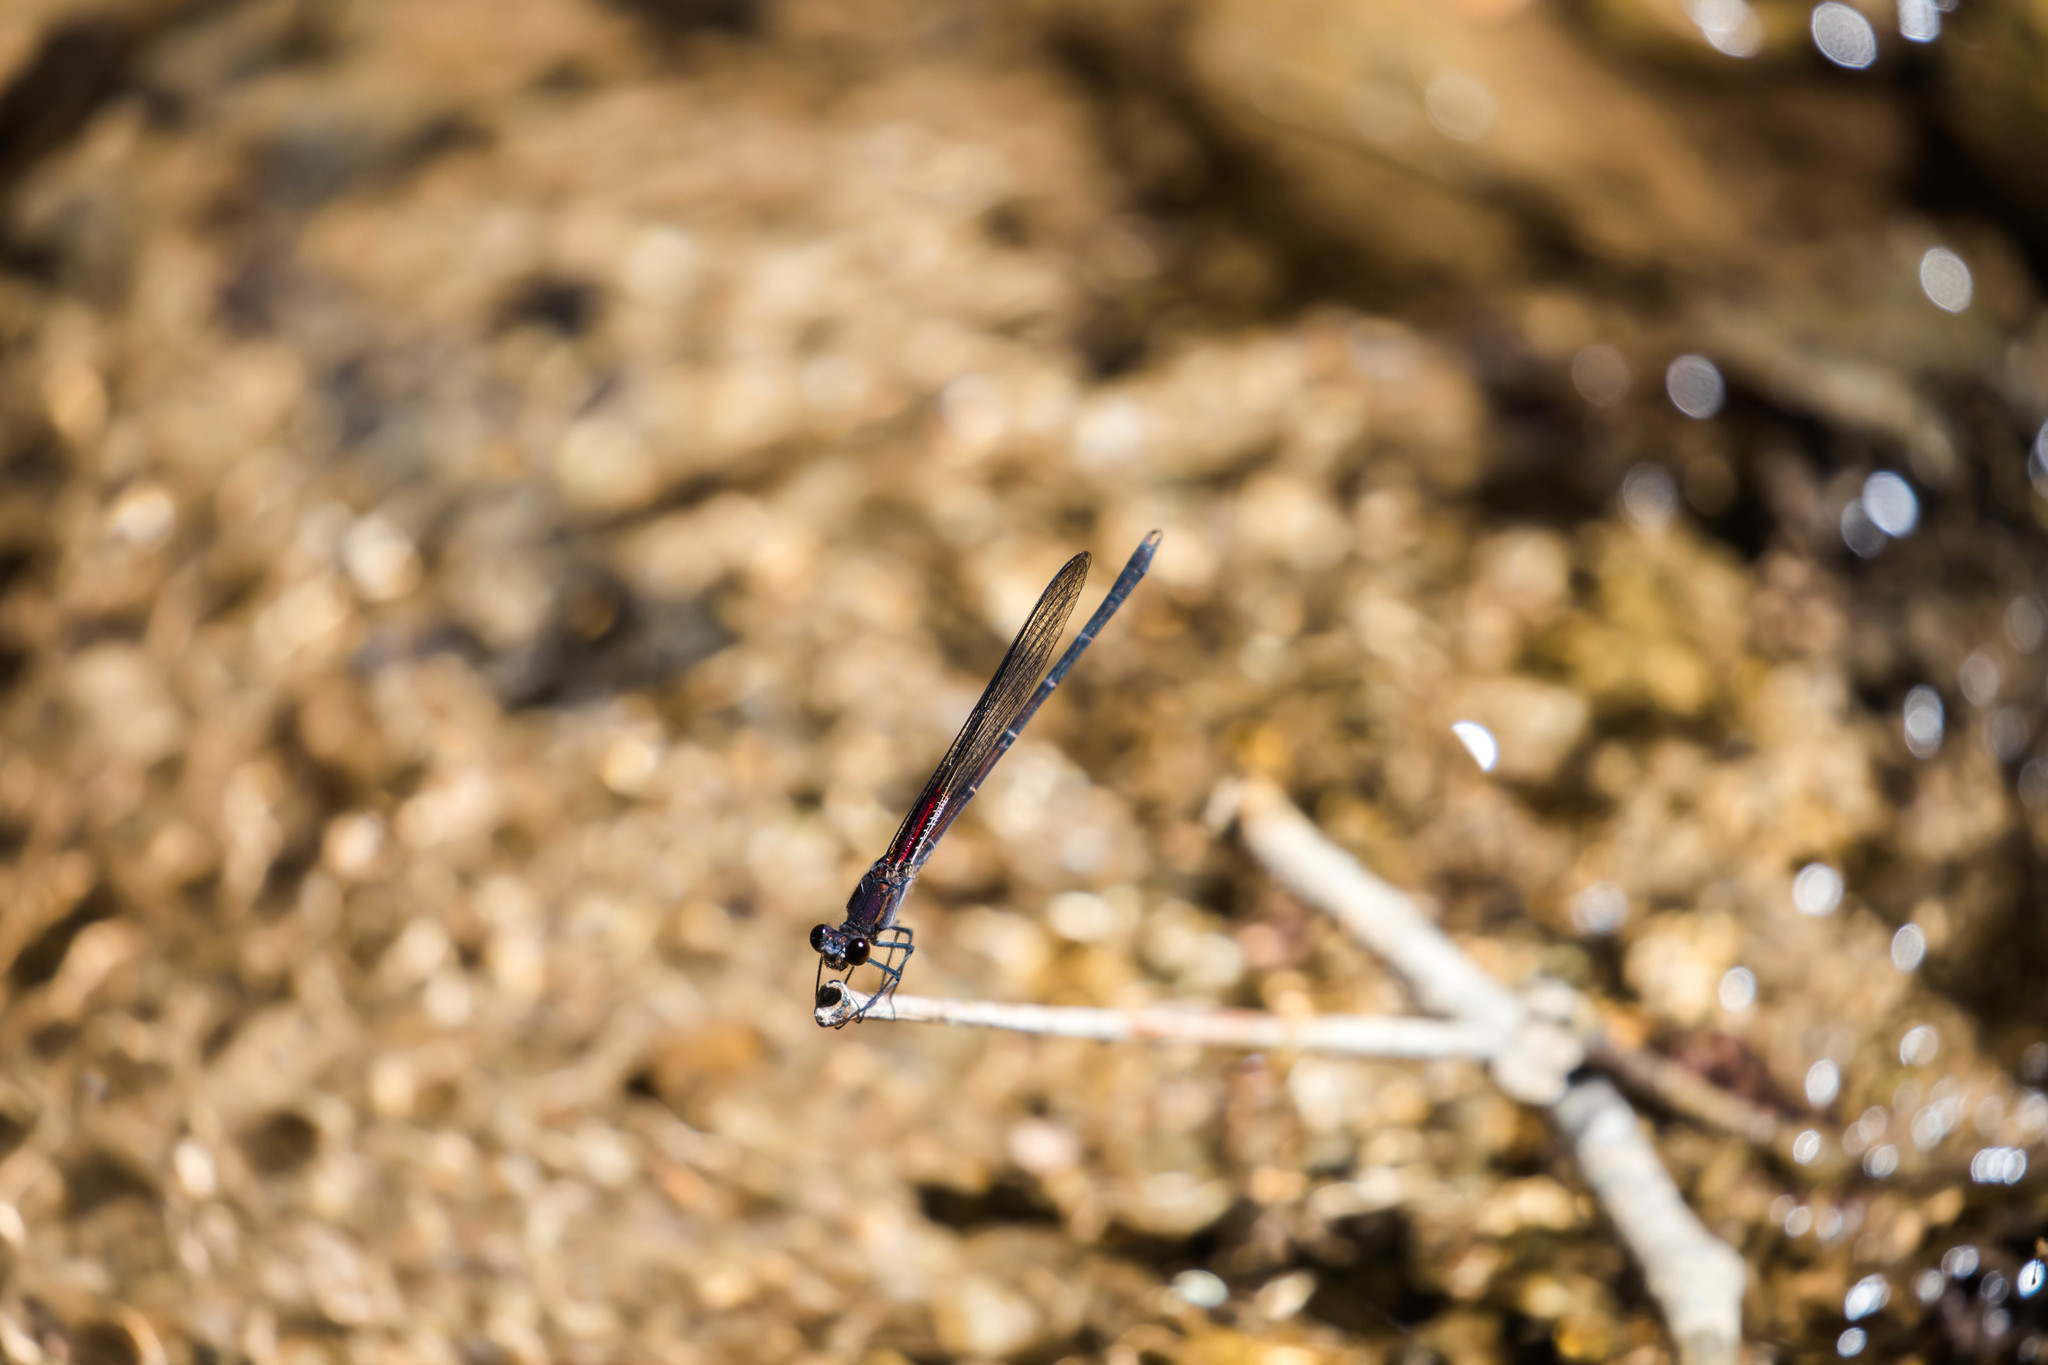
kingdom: Animalia
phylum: Arthropoda
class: Insecta
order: Odonata
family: Calopterygidae
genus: Hetaerina
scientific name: Hetaerina vulnerata
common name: Canyon rubyspot
